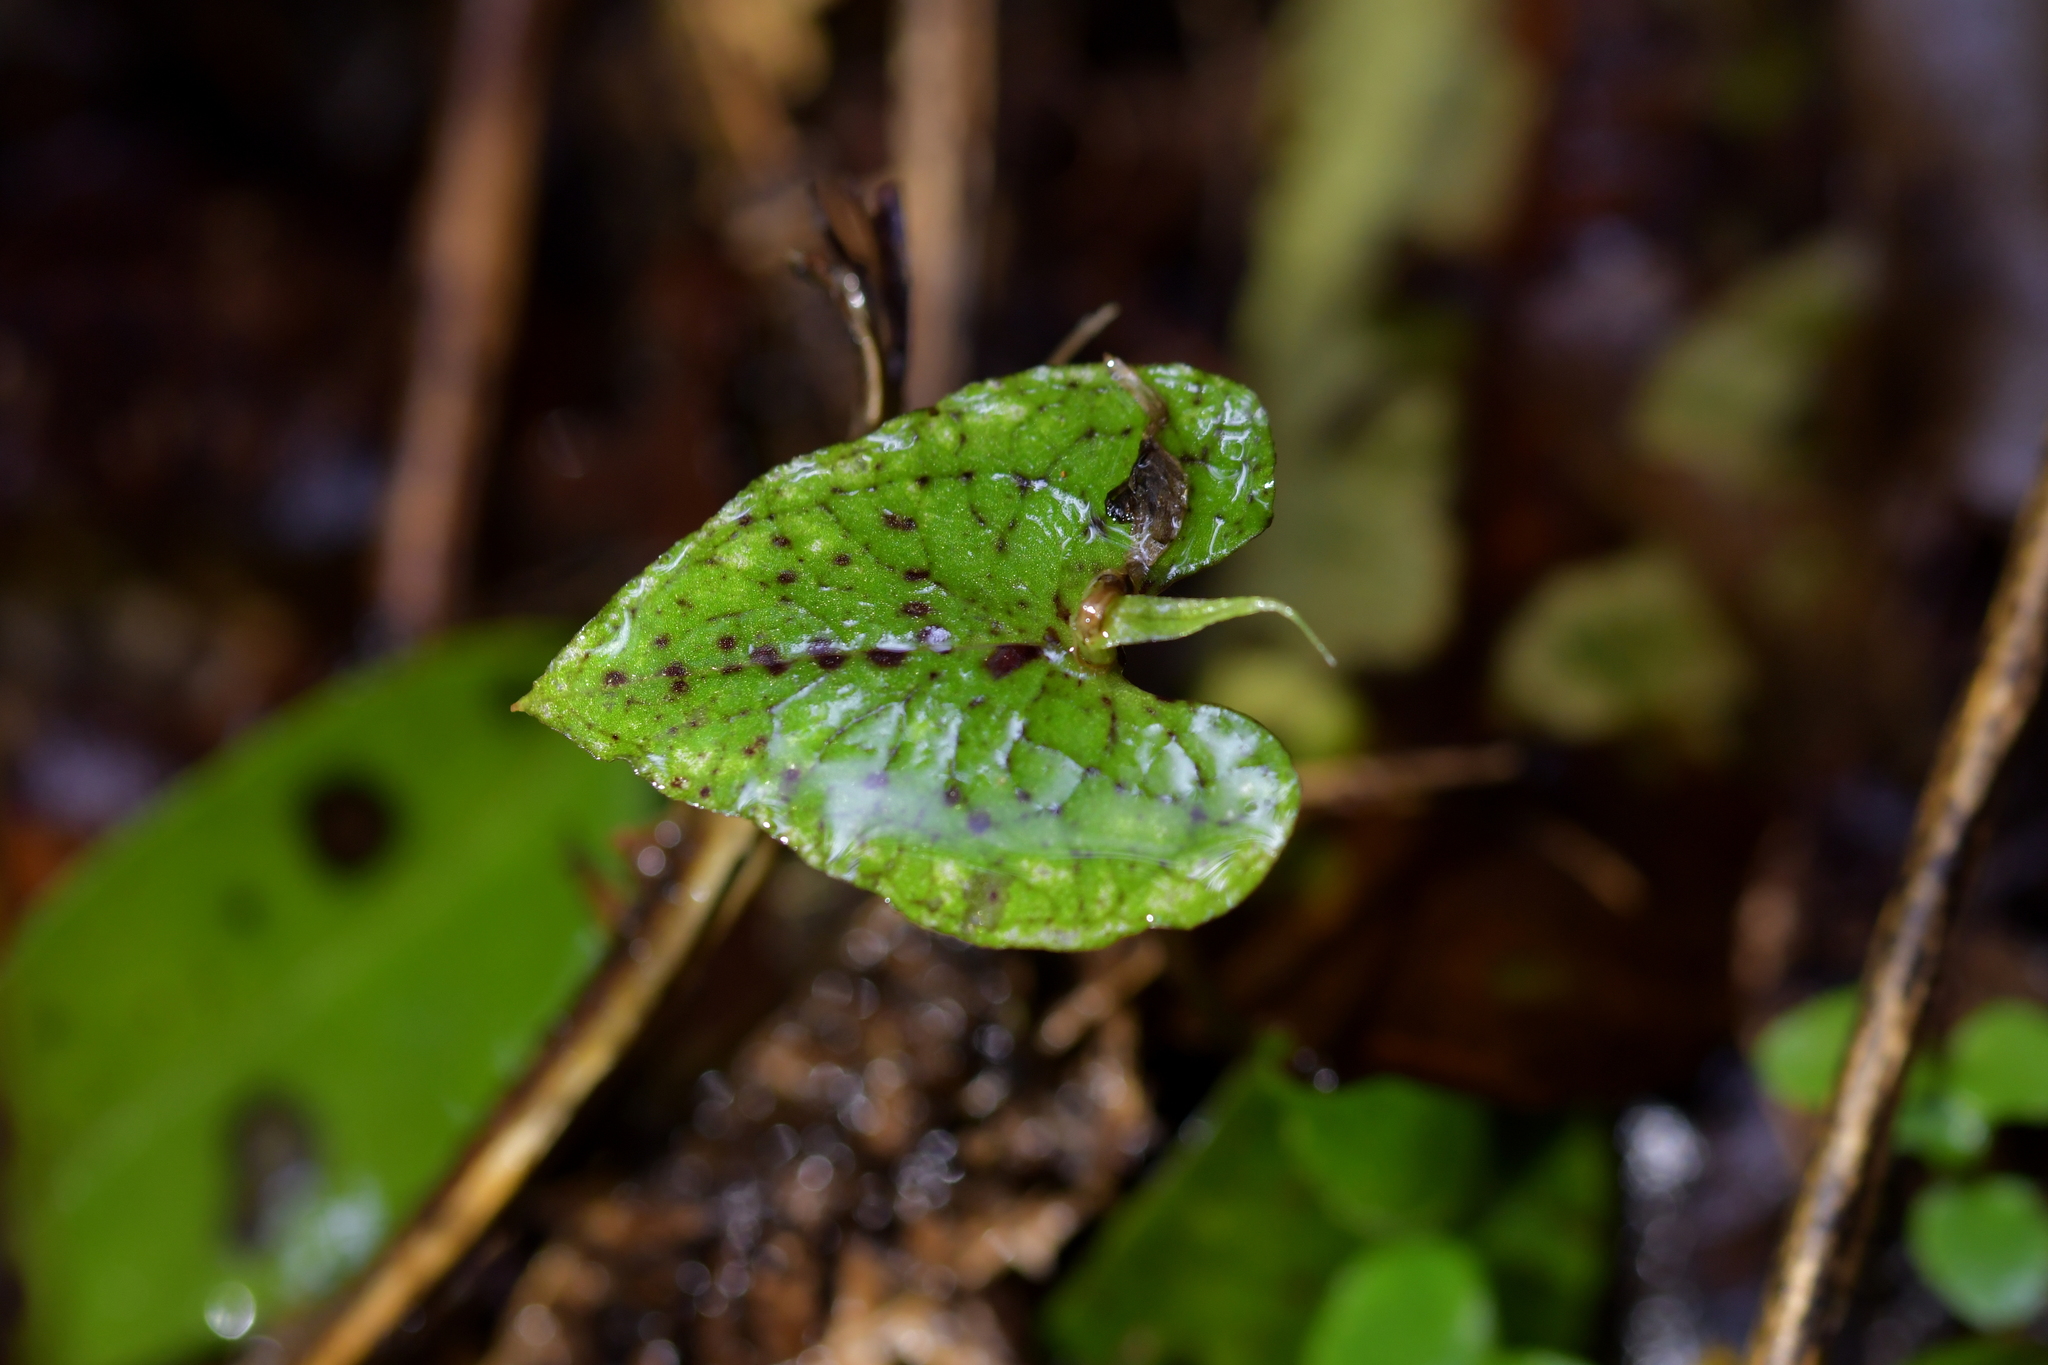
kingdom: Plantae
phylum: Tracheophyta
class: Liliopsida
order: Asparagales
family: Orchidaceae
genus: Corybas
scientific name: Corybas acuminatus
